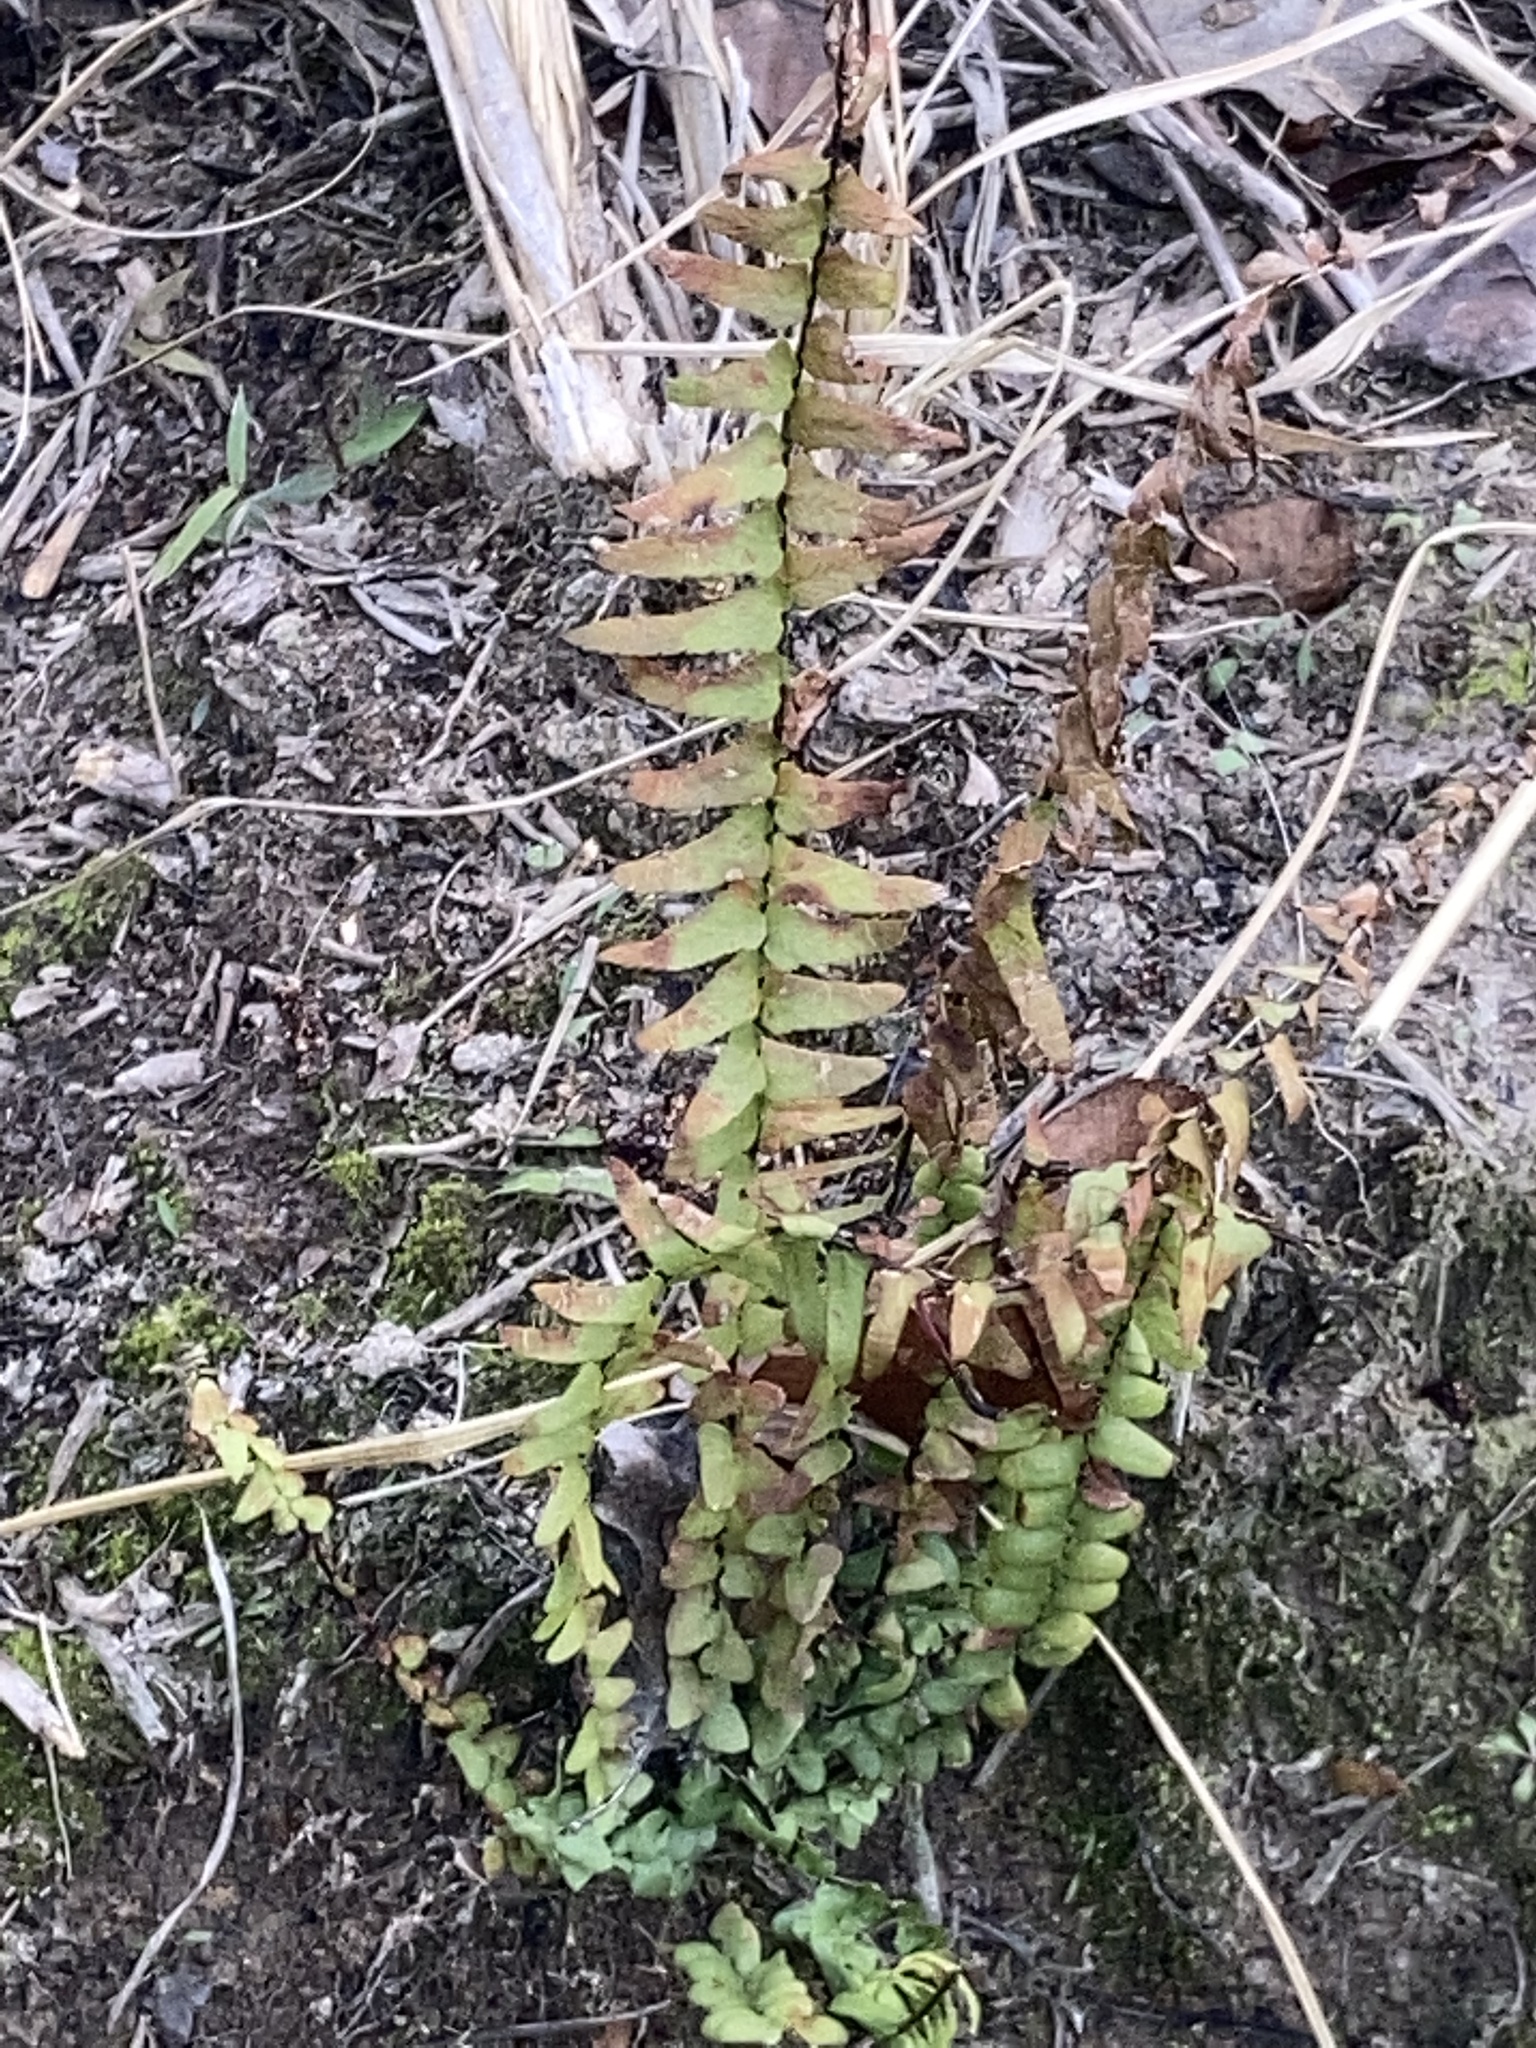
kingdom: Plantae
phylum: Tracheophyta
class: Polypodiopsida
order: Polypodiales
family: Aspleniaceae
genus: Asplenium
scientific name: Asplenium platyneuron
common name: Ebony spleenwort
